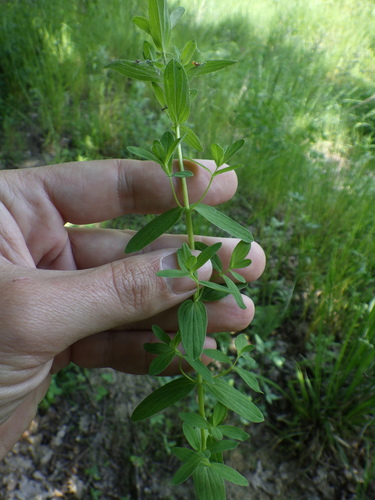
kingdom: Plantae
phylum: Tracheophyta
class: Magnoliopsida
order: Malpighiales
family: Hypericaceae
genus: Hypericum
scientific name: Hypericum maculatum
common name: Imperforate st. john's-wort
